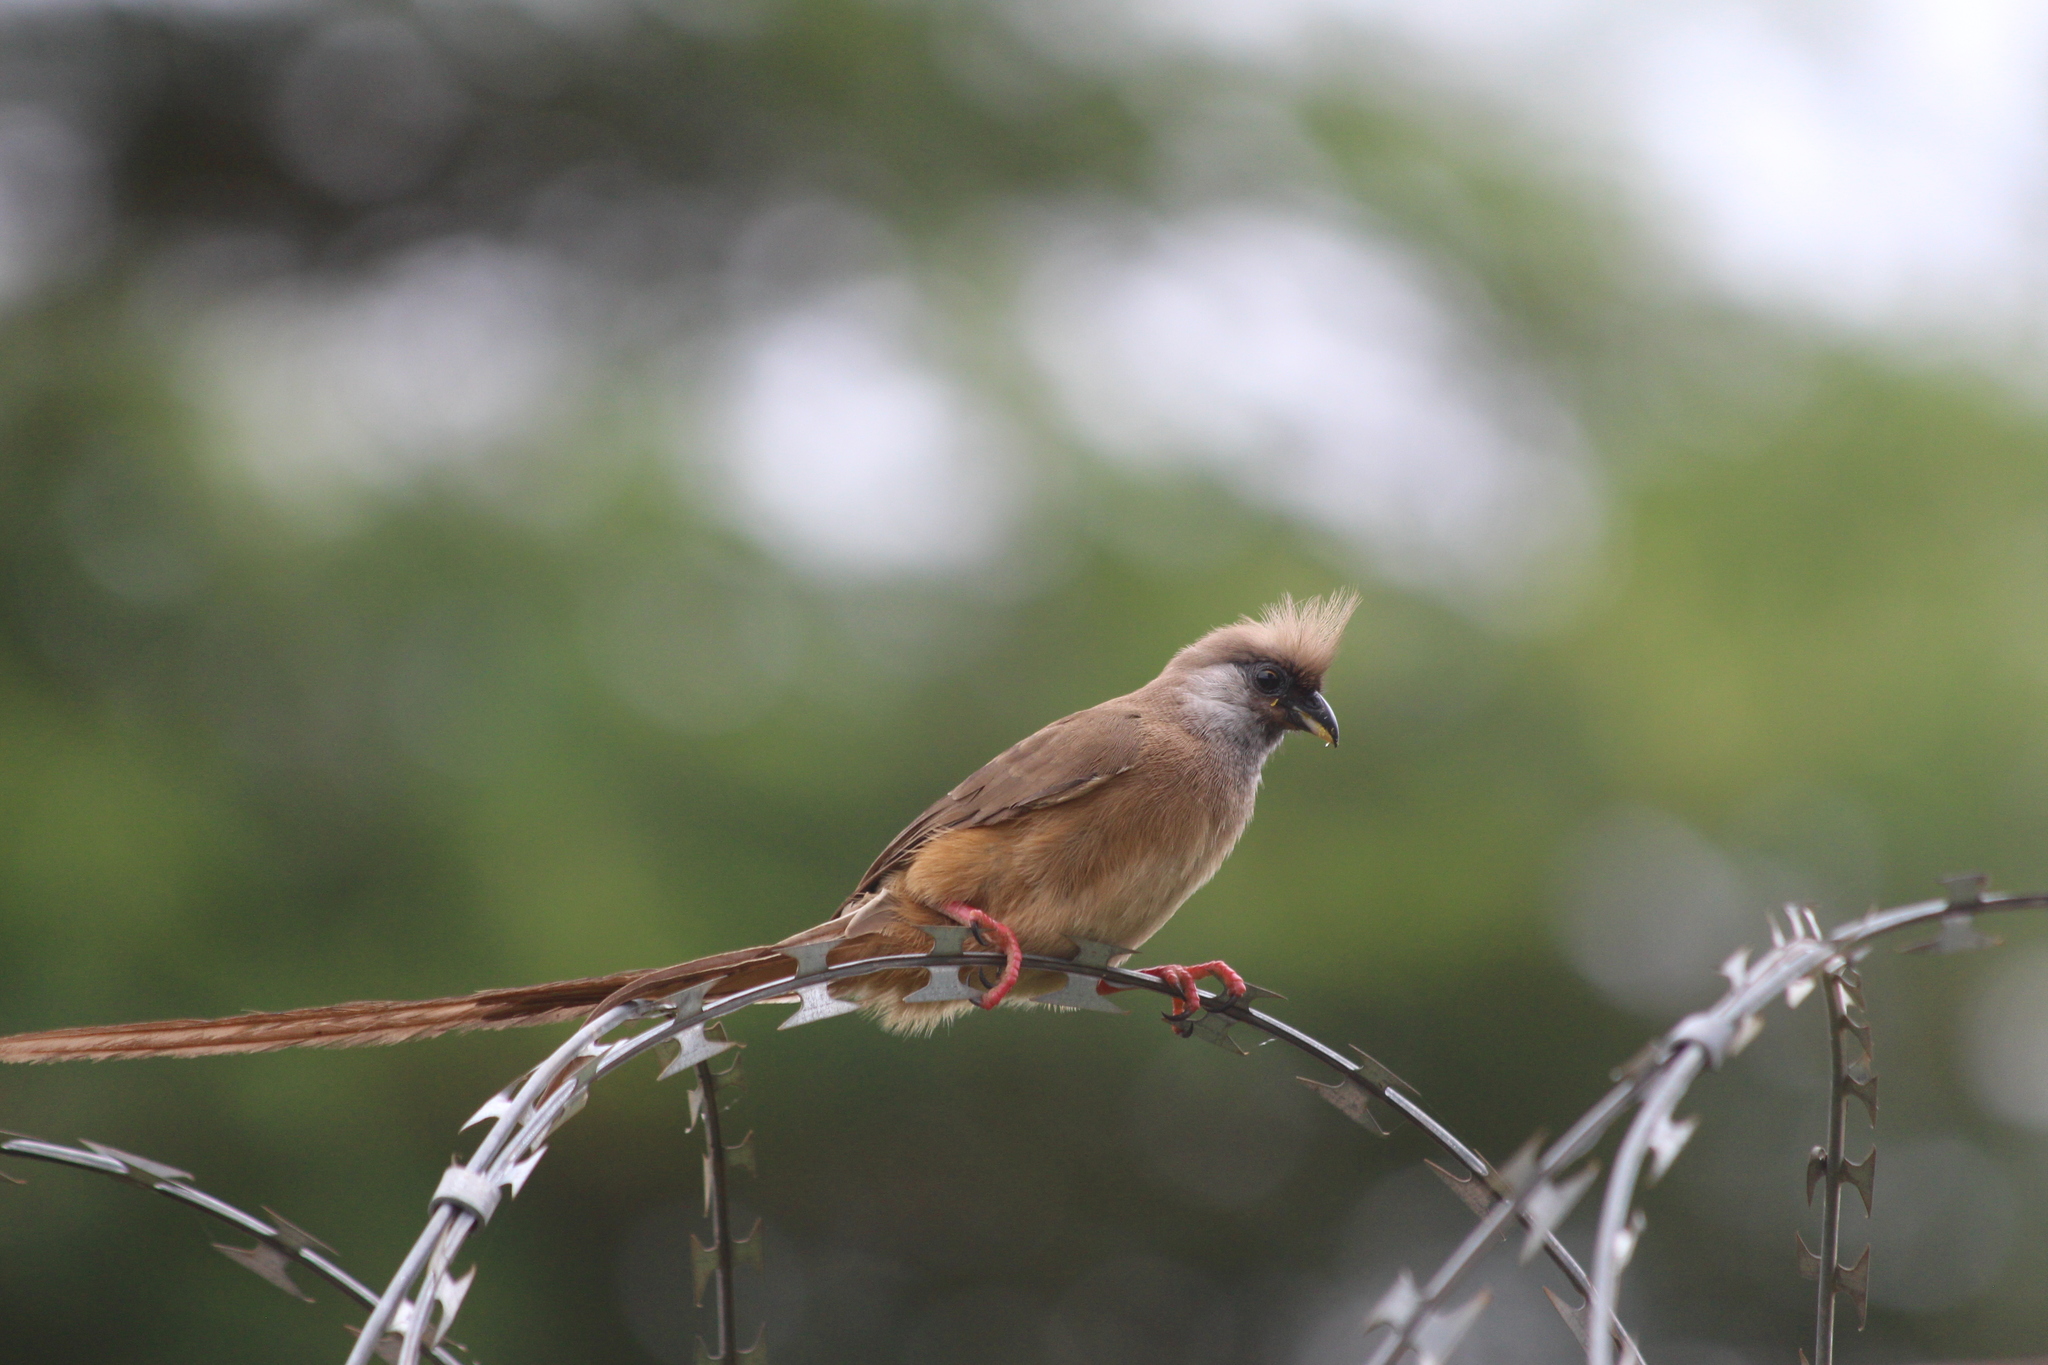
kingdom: Animalia
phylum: Chordata
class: Aves
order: Coliiformes
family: Coliidae
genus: Colius
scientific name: Colius striatus
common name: Speckled mousebird
